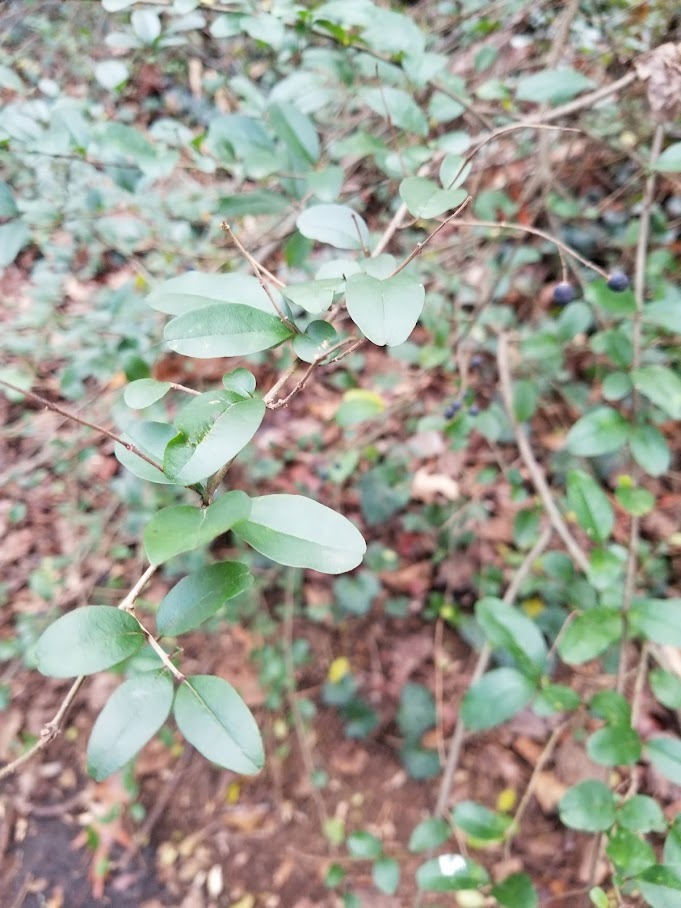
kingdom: Plantae
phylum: Tracheophyta
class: Magnoliopsida
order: Lamiales
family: Oleaceae
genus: Ligustrum
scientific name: Ligustrum sinense
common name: Chinese privet
